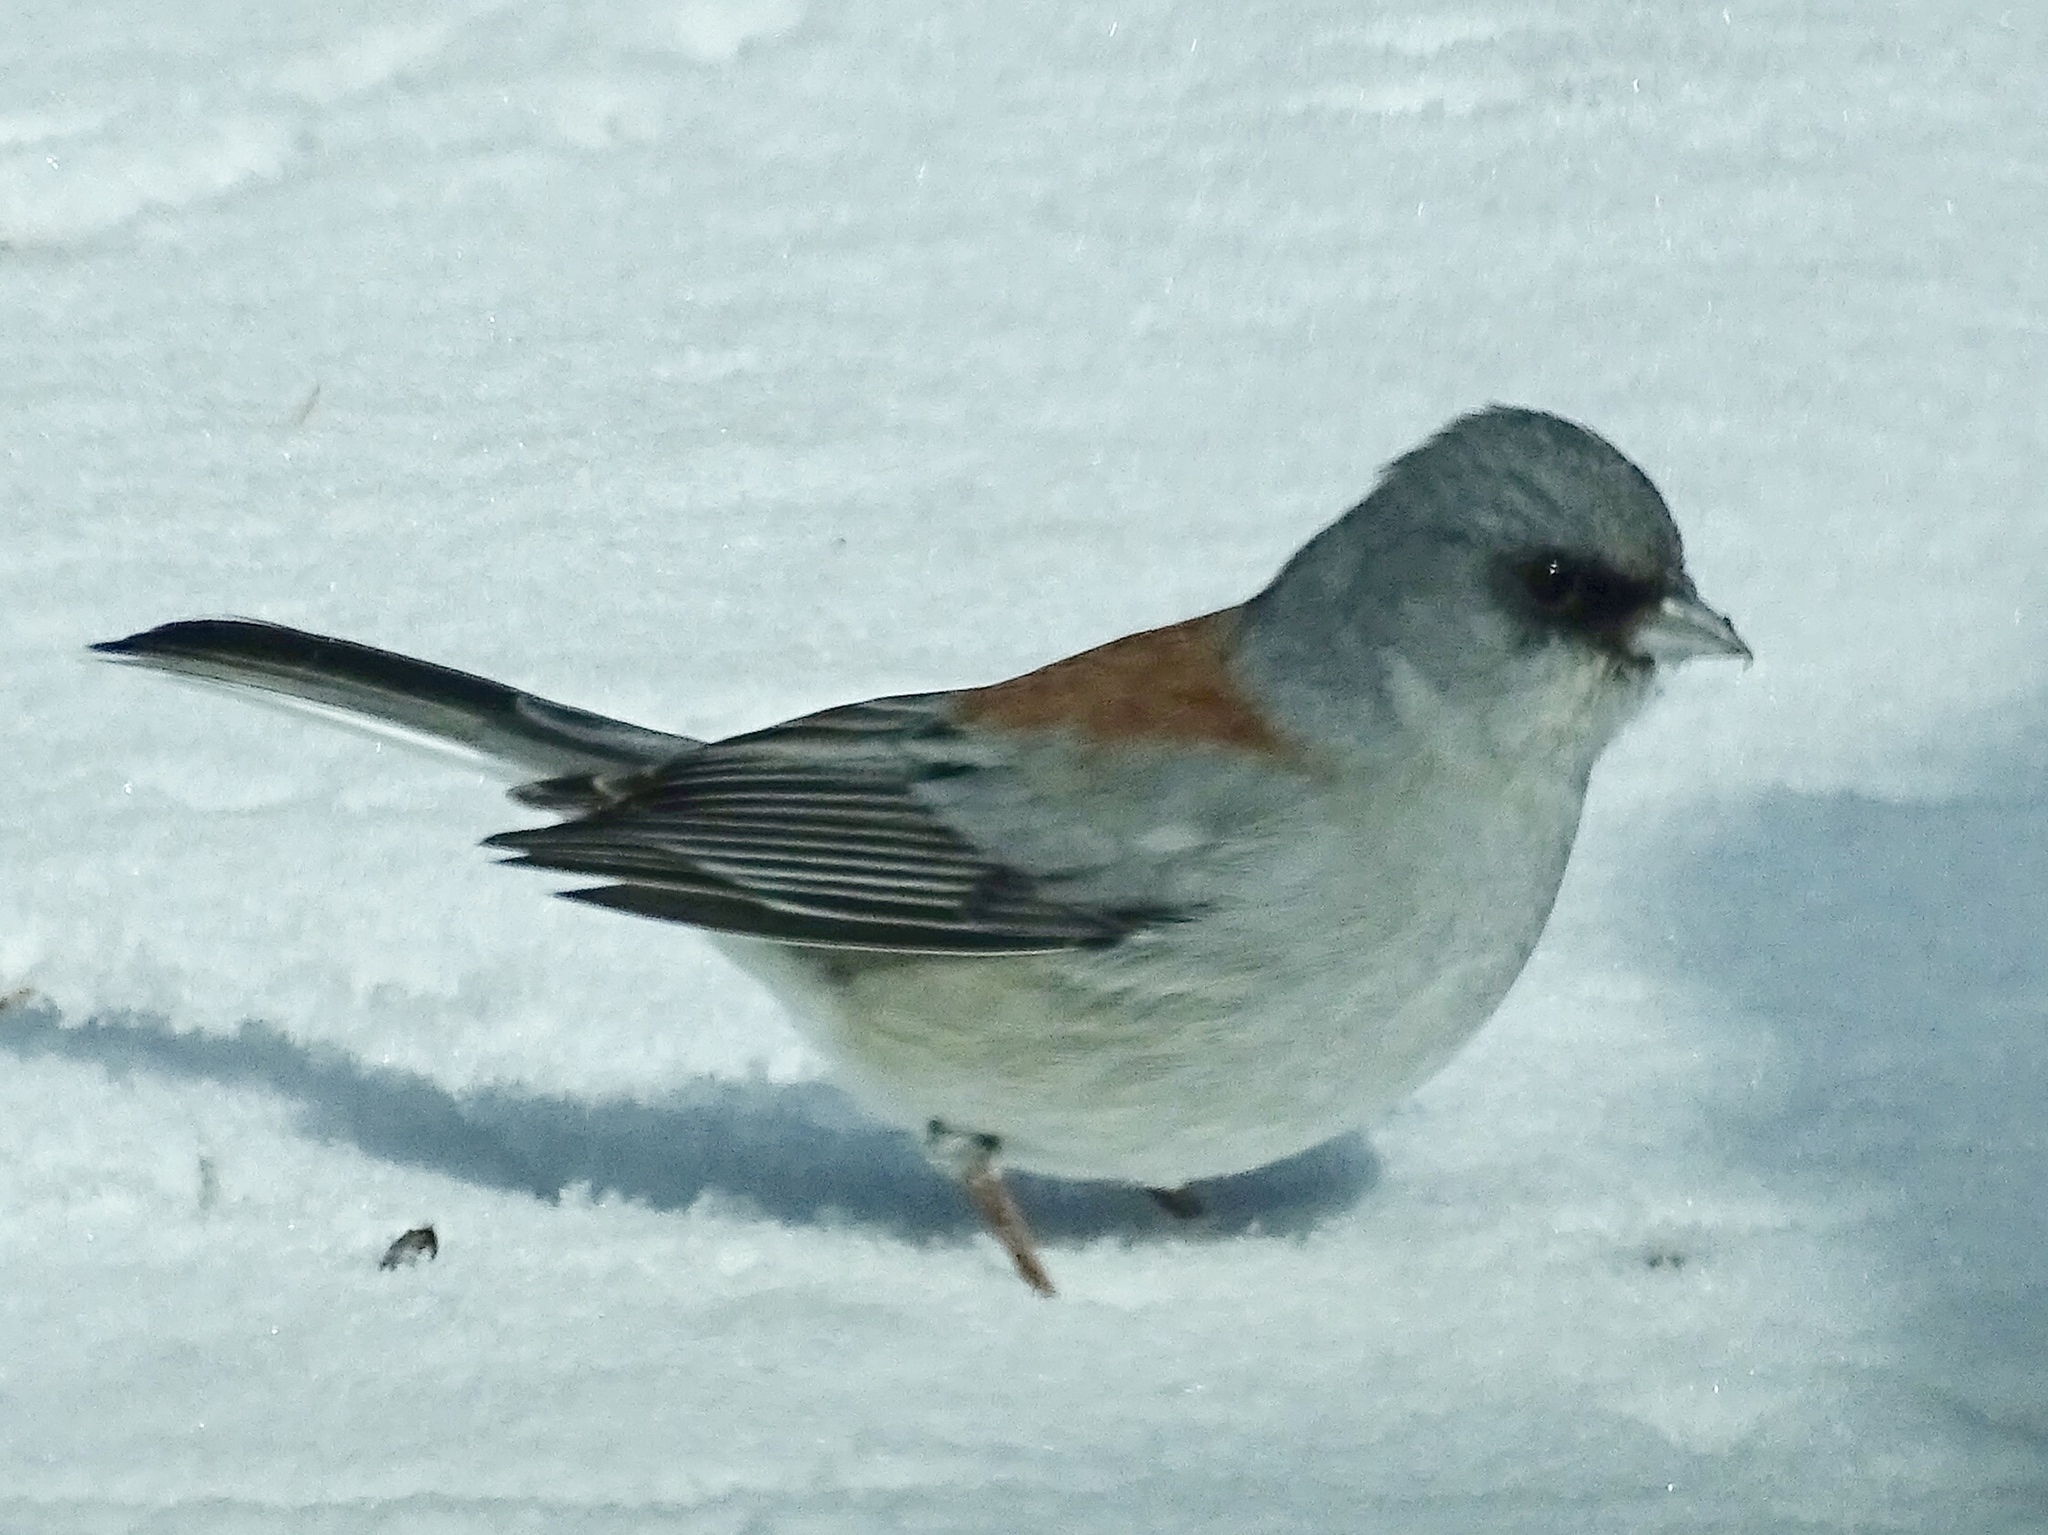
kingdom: Animalia
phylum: Chordata
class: Aves
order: Passeriformes
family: Passerellidae
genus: Junco
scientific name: Junco hyemalis
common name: Dark-eyed junco
